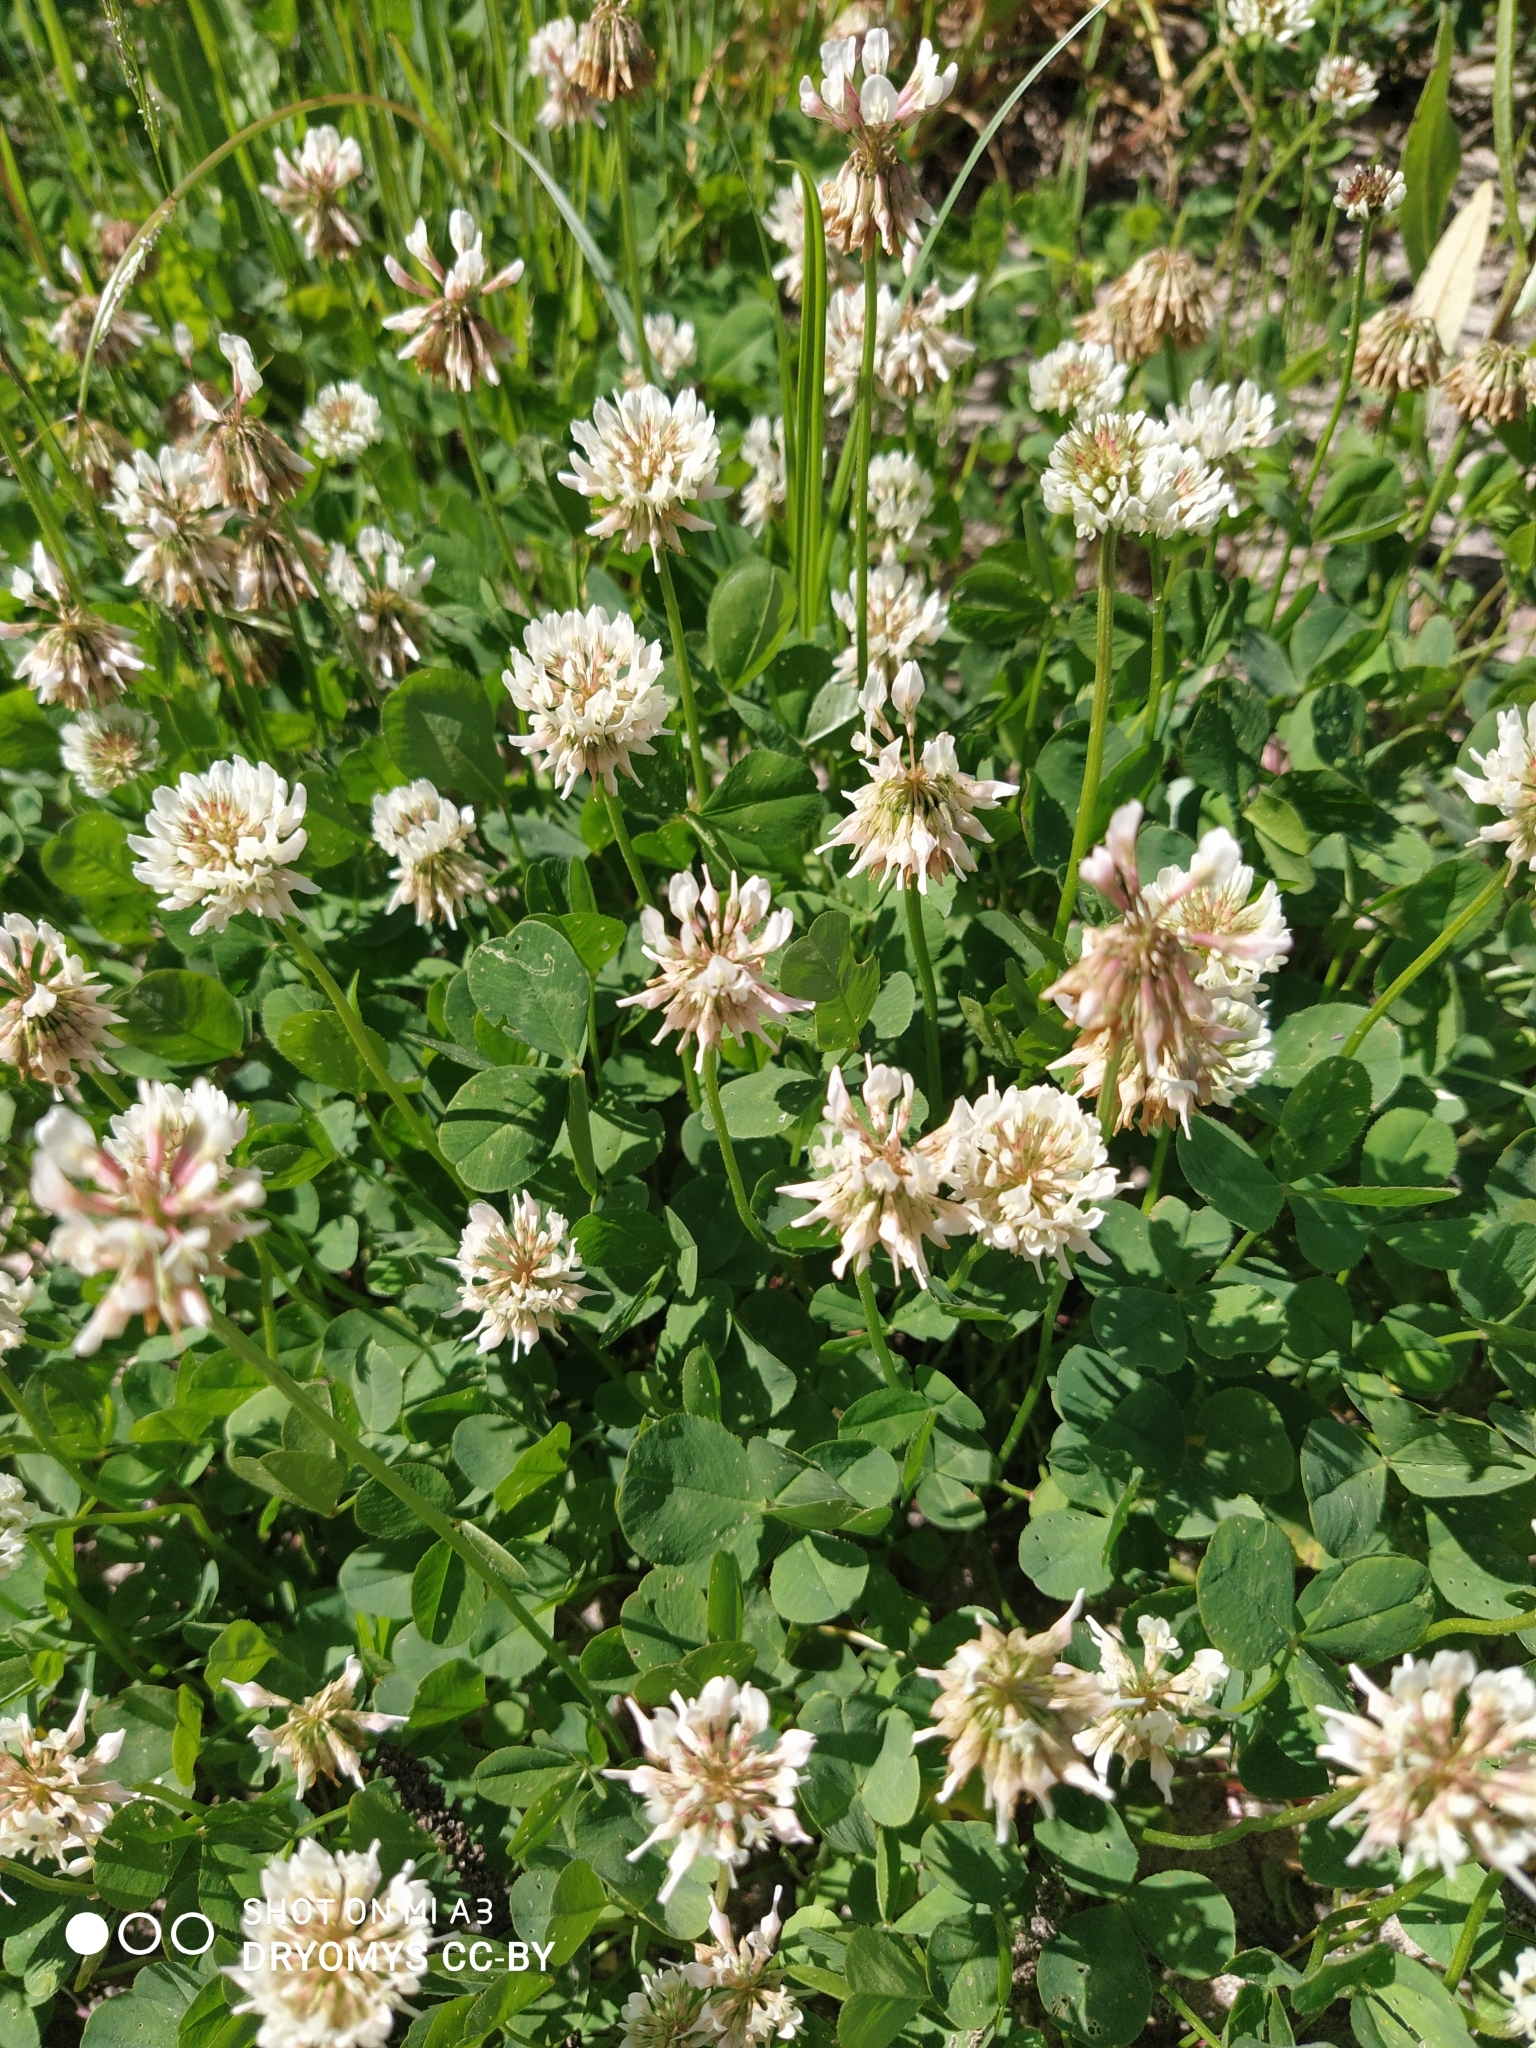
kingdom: Plantae
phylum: Tracheophyta
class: Magnoliopsida
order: Fabales
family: Fabaceae
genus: Trifolium
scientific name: Trifolium repens
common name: White clover
